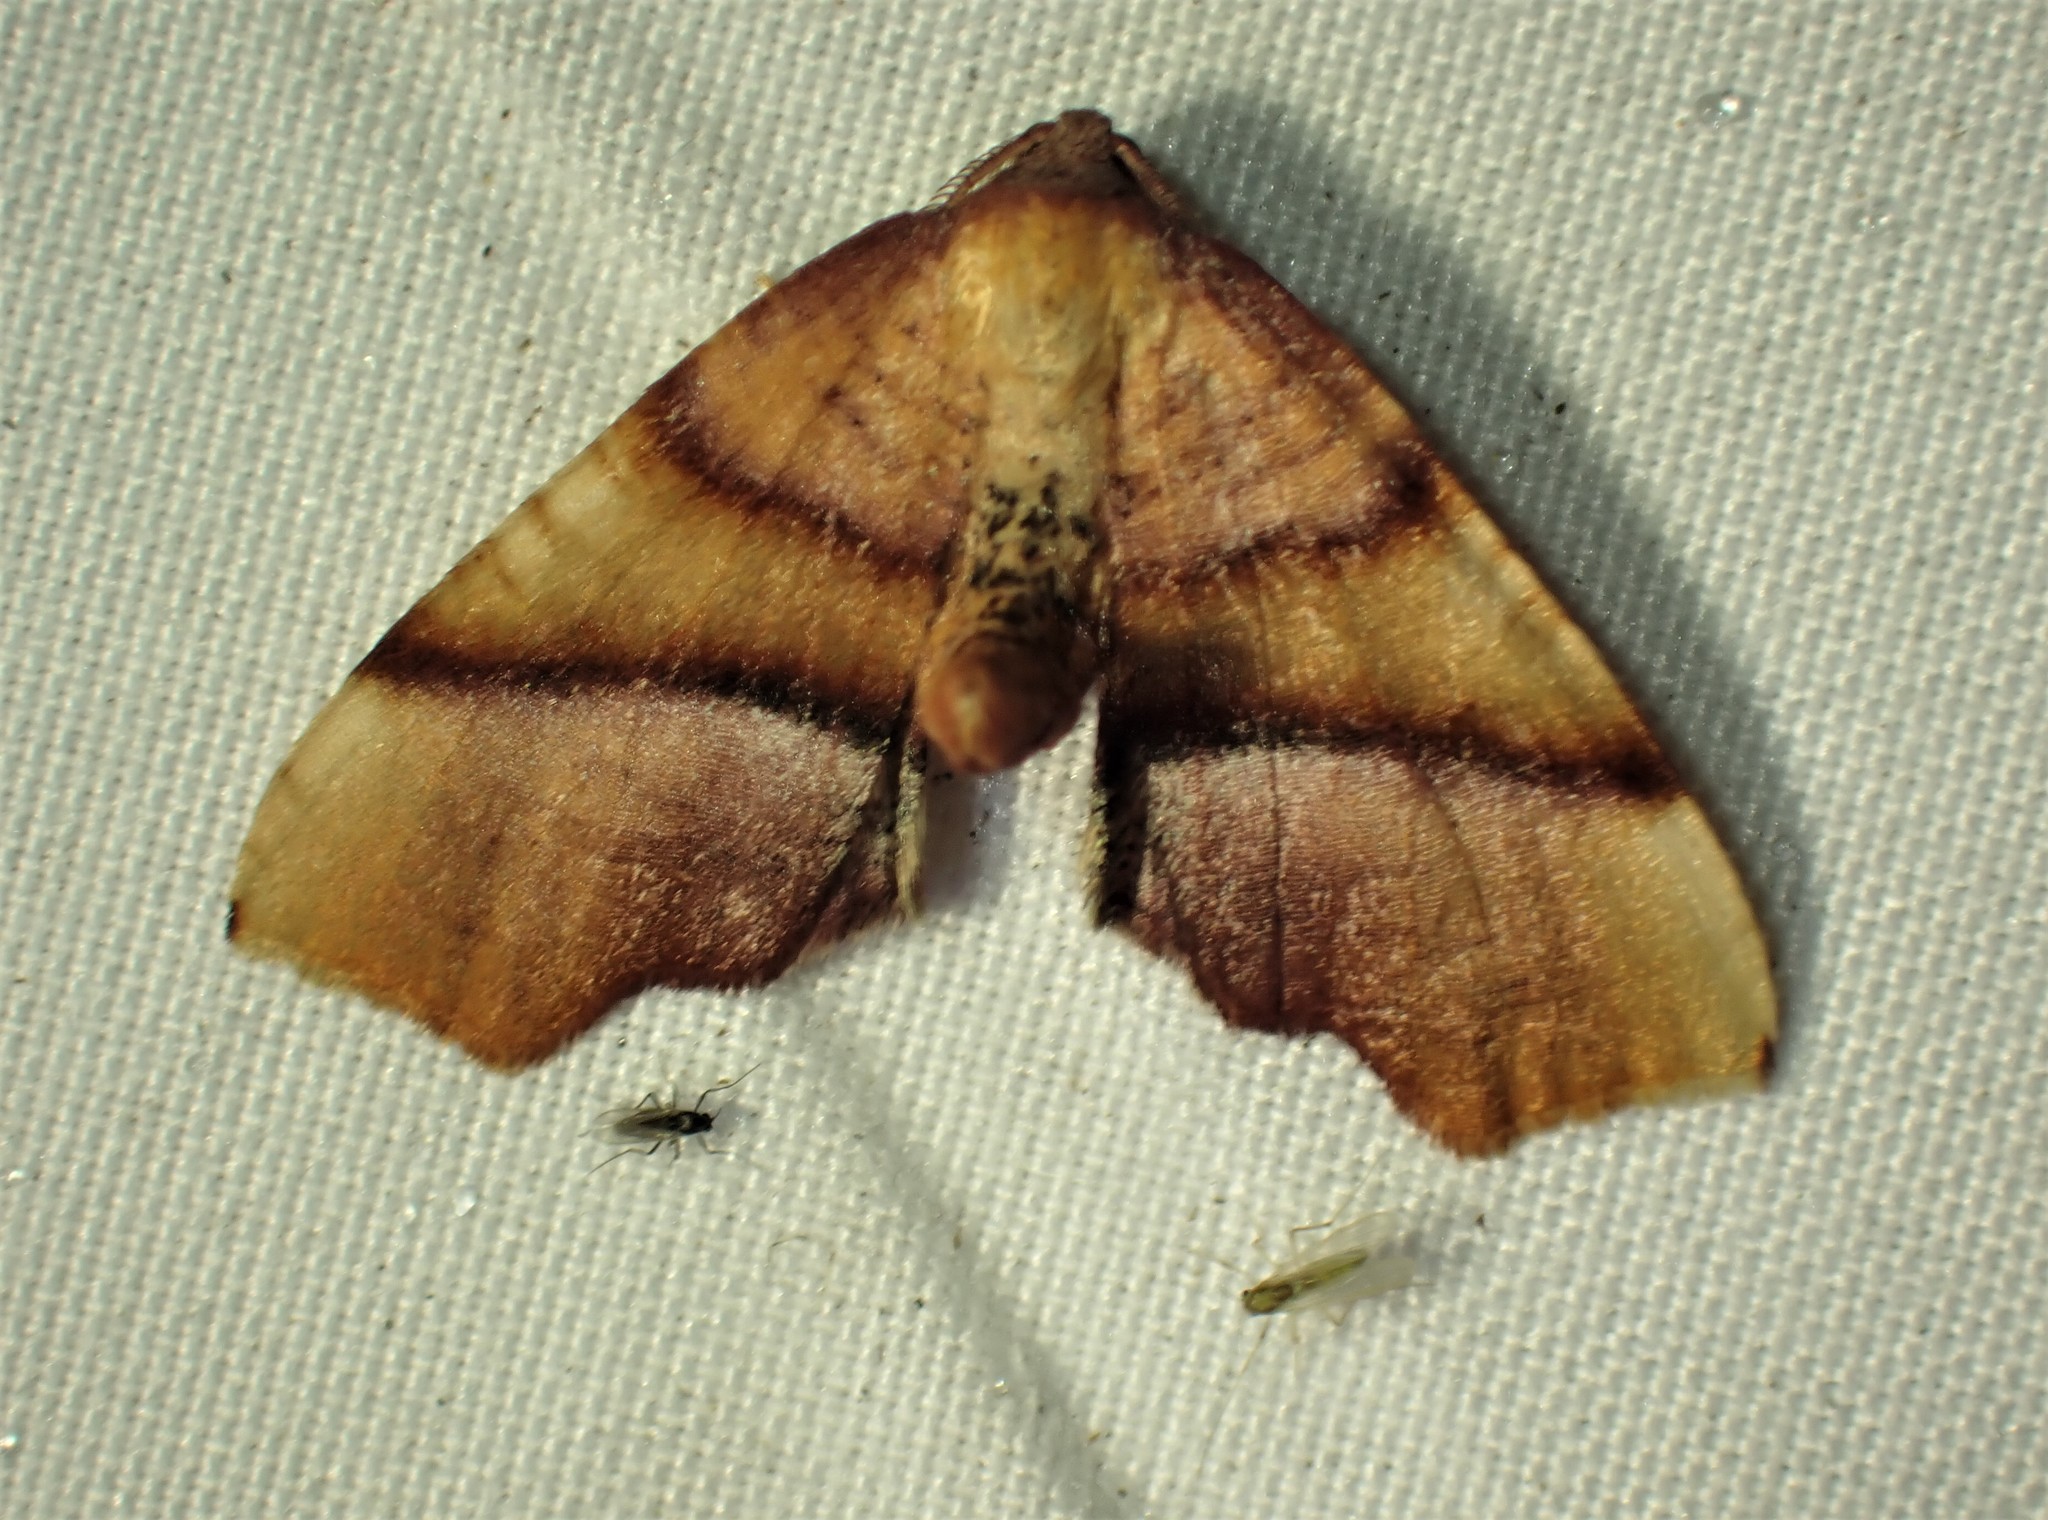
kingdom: Animalia
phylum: Arthropoda
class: Insecta
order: Lepidoptera
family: Geometridae
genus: Plagodis
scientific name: Plagodis phlogosaria
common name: Straight-lined plagodis
